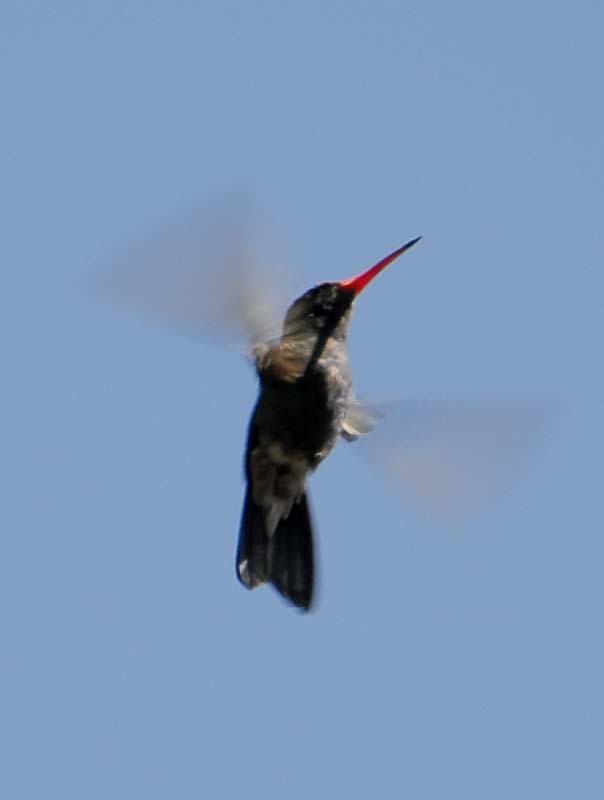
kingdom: Animalia
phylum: Chordata
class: Aves
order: Apodiformes
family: Trochilidae
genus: Cynanthus
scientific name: Cynanthus latirostris
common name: Broad-billed hummingbird
